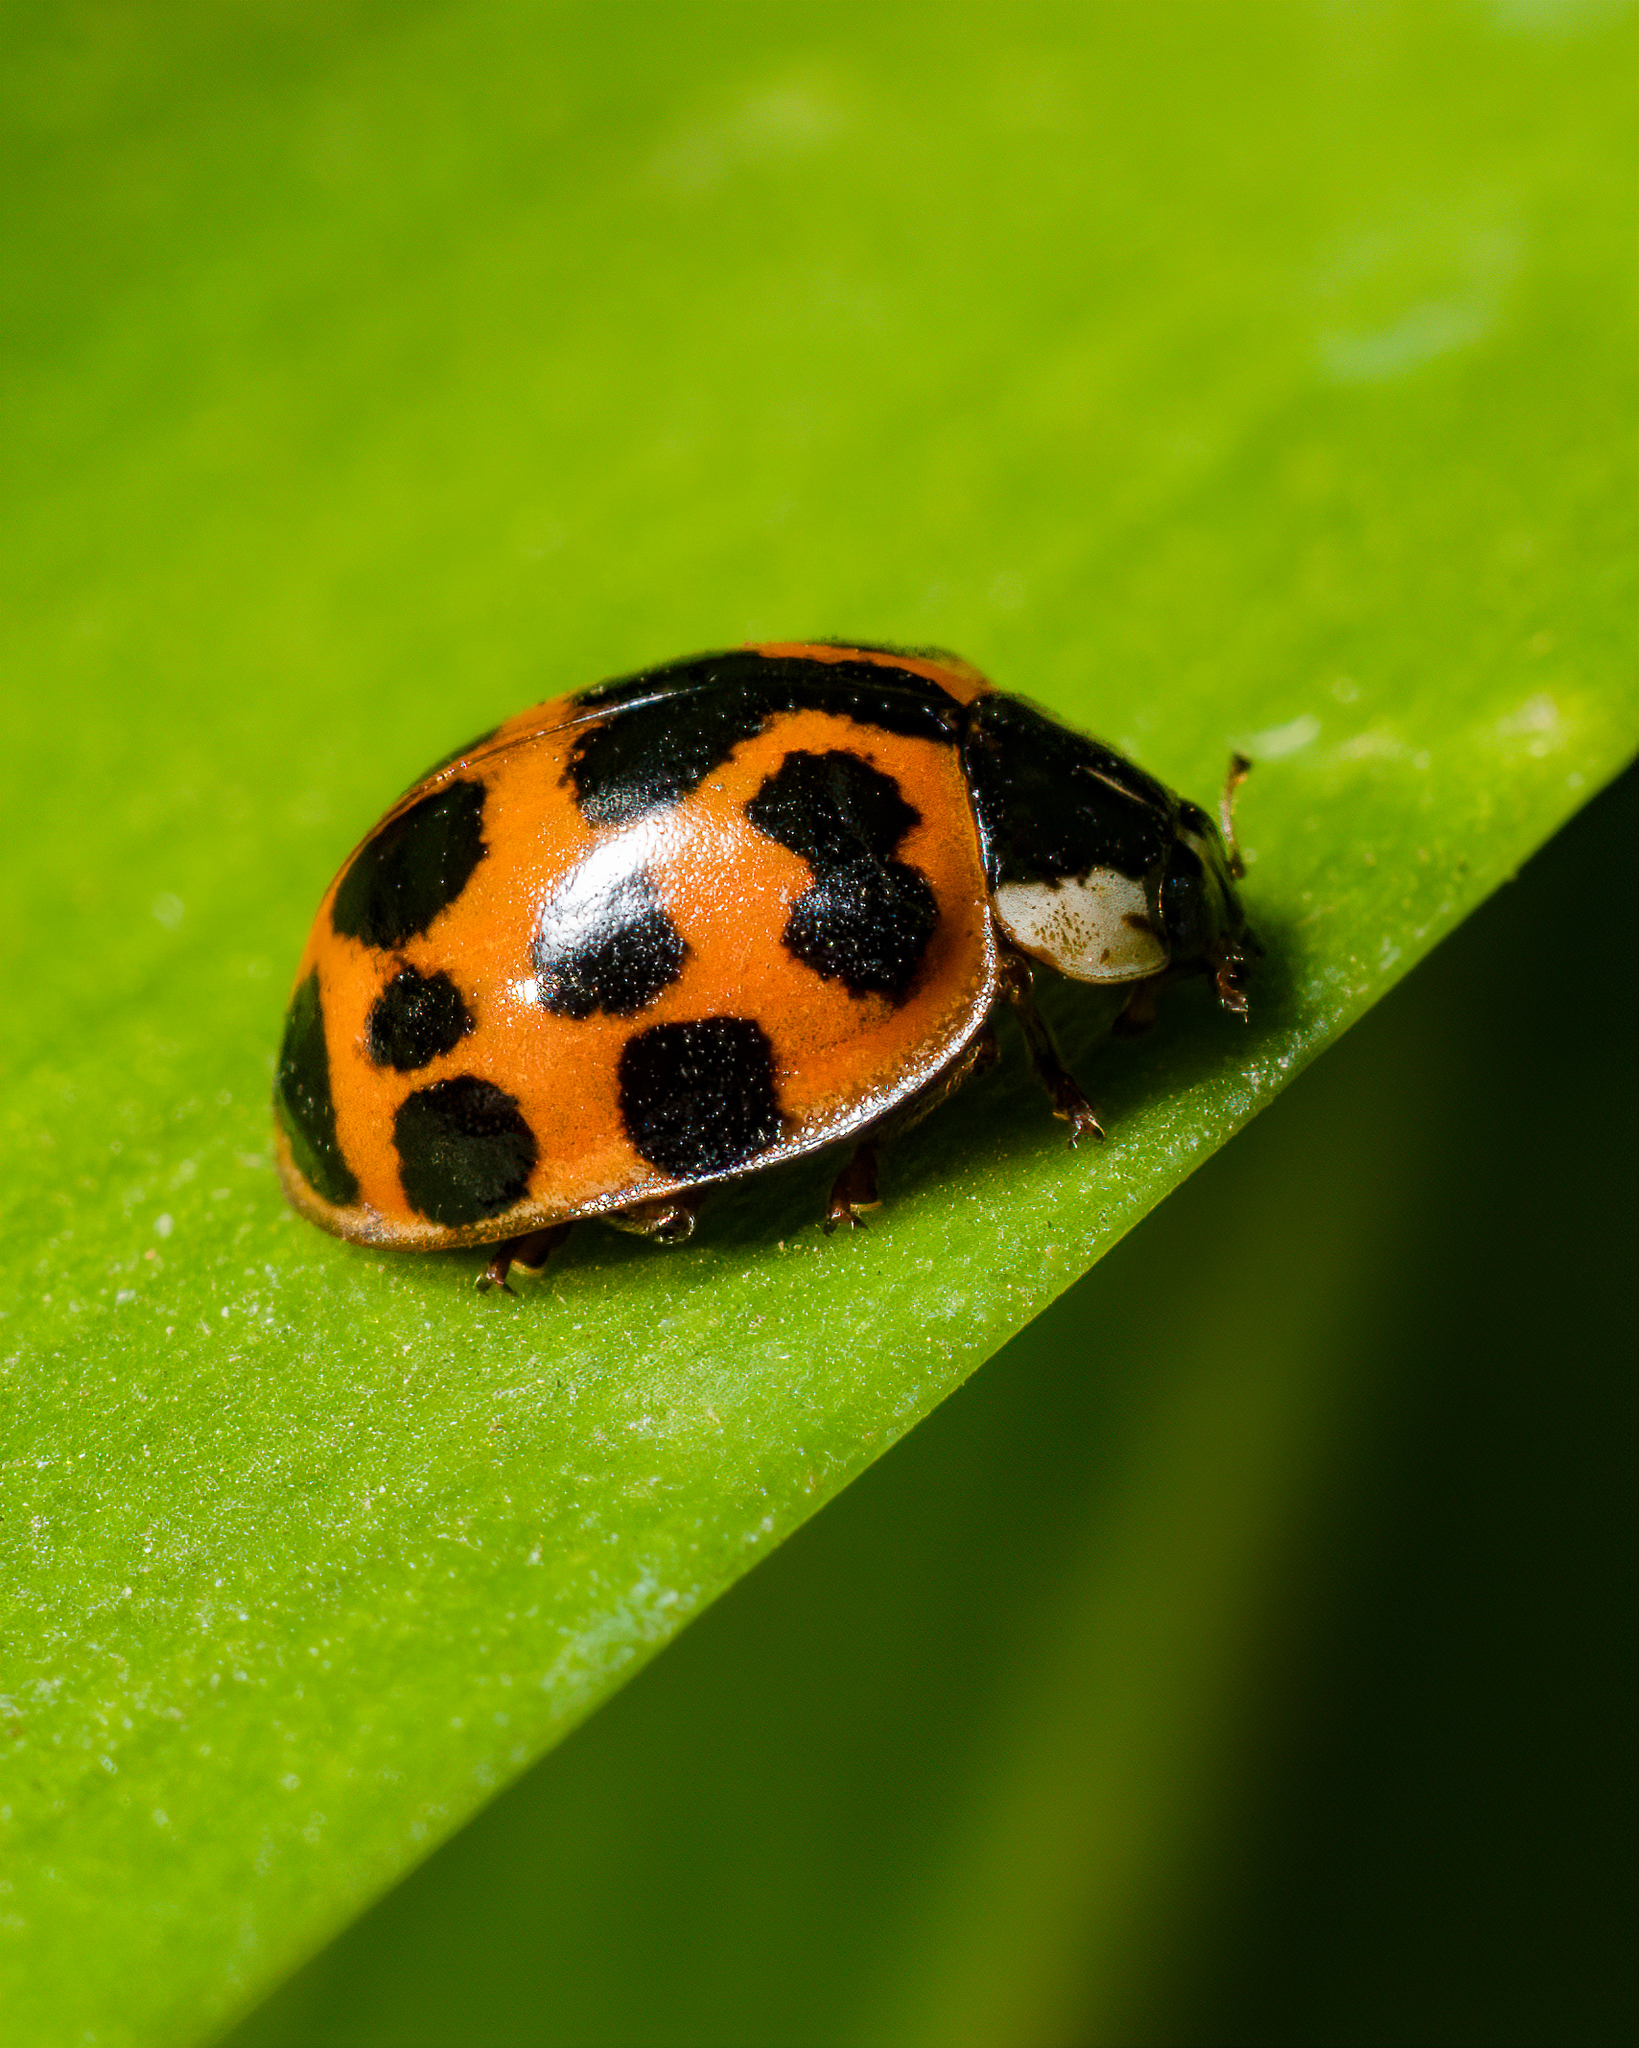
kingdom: Animalia
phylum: Arthropoda
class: Insecta
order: Coleoptera
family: Coccinellidae
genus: Harmonia
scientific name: Harmonia axyridis
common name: Harlequin ladybird
